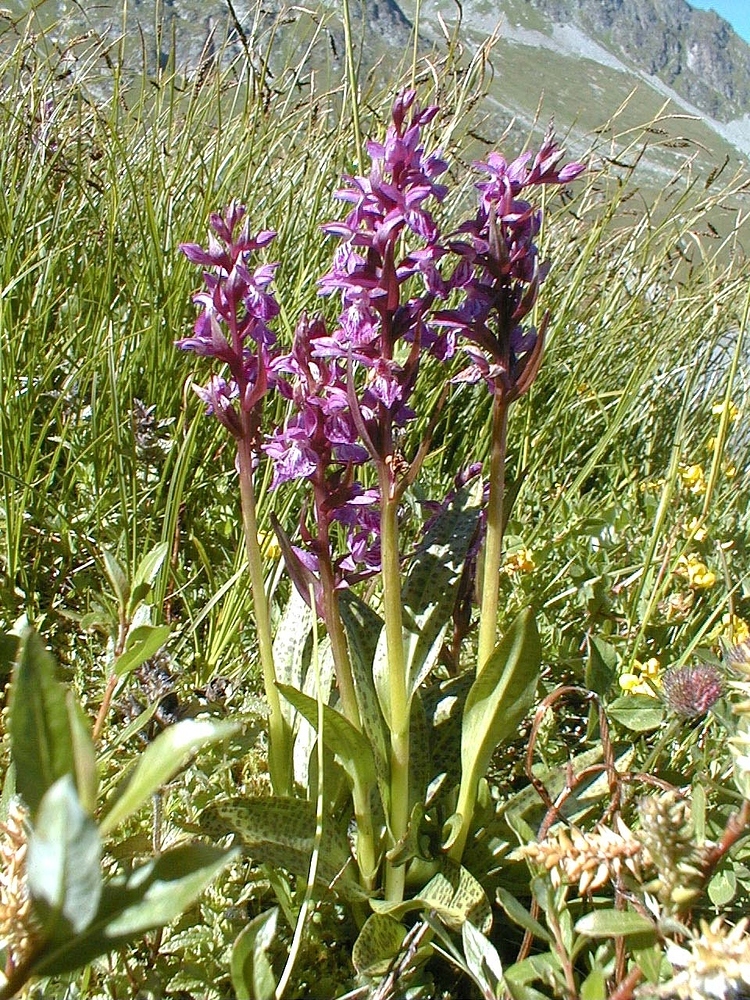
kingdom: Plantae
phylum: Tracheophyta
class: Liliopsida
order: Asparagales
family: Orchidaceae
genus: Dactylorhiza
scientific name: Dactylorhiza majalis
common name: Marsh orchid
